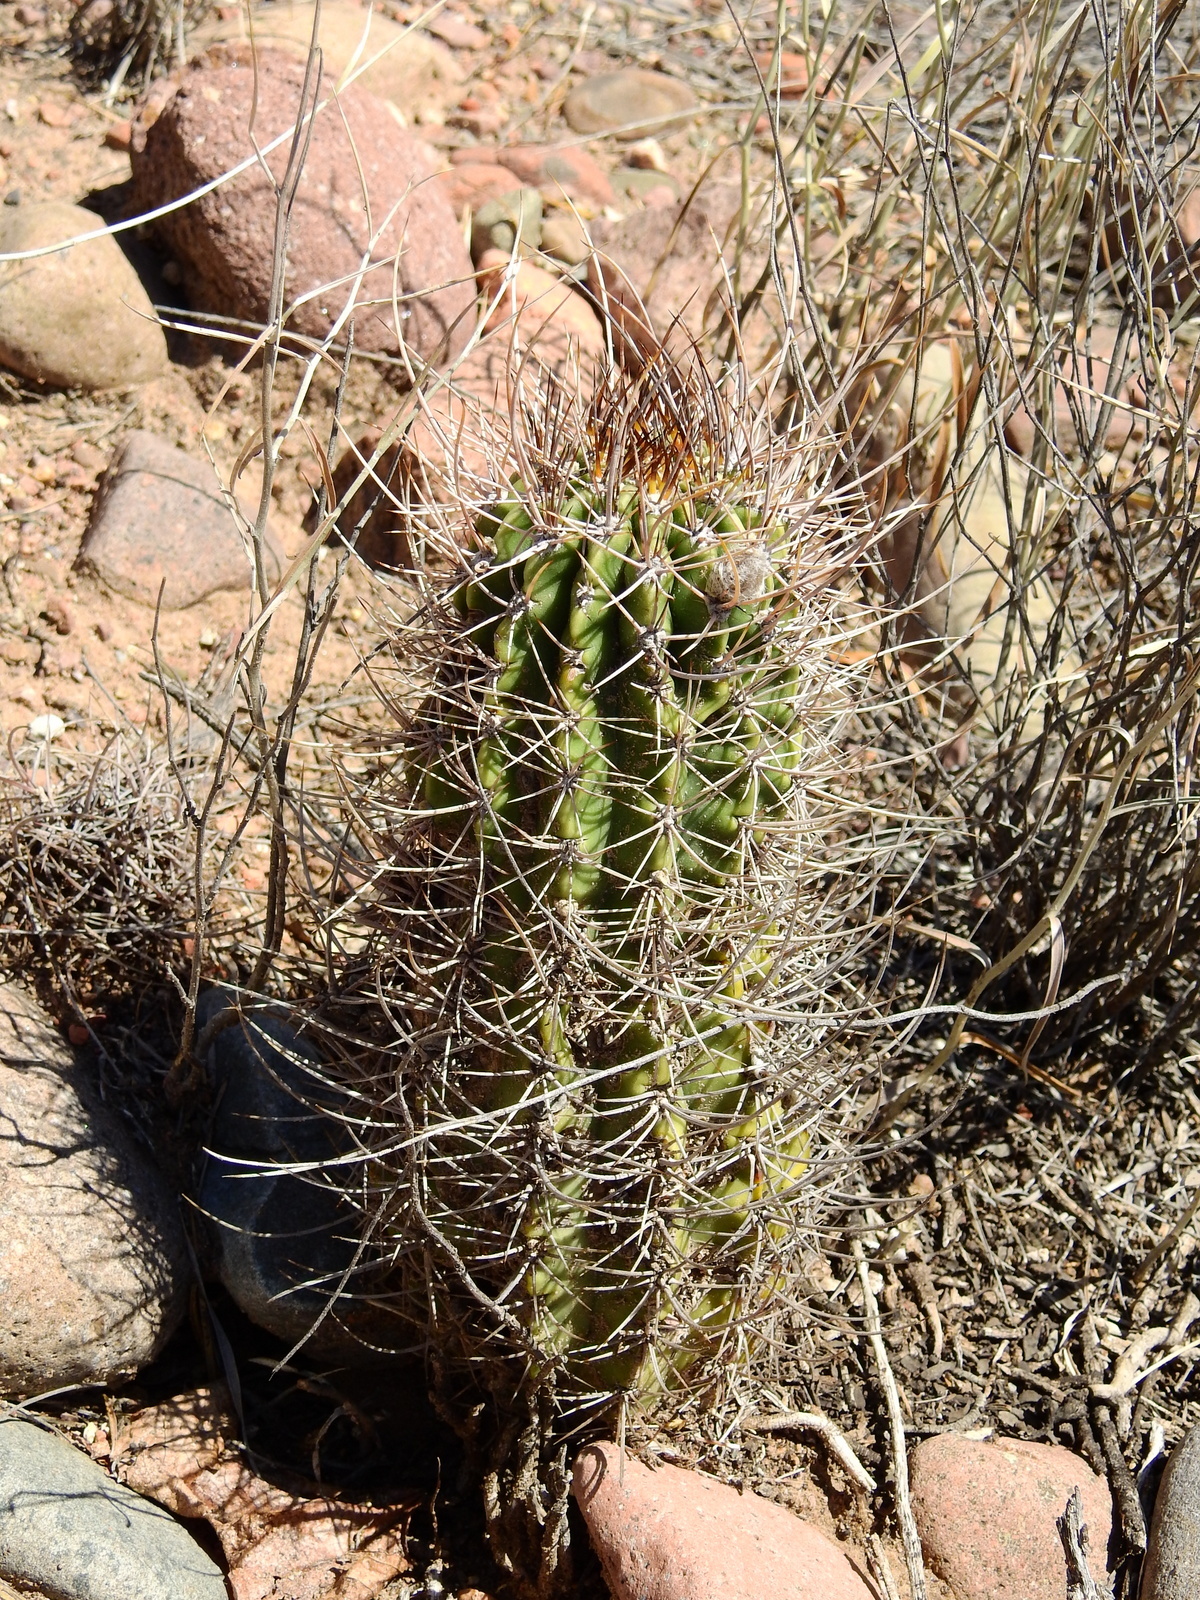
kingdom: Plantae
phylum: Tracheophyta
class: Magnoliopsida
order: Caryophyllales
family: Cactaceae
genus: Acanthocalycium
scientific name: Acanthocalycium leucanthum
